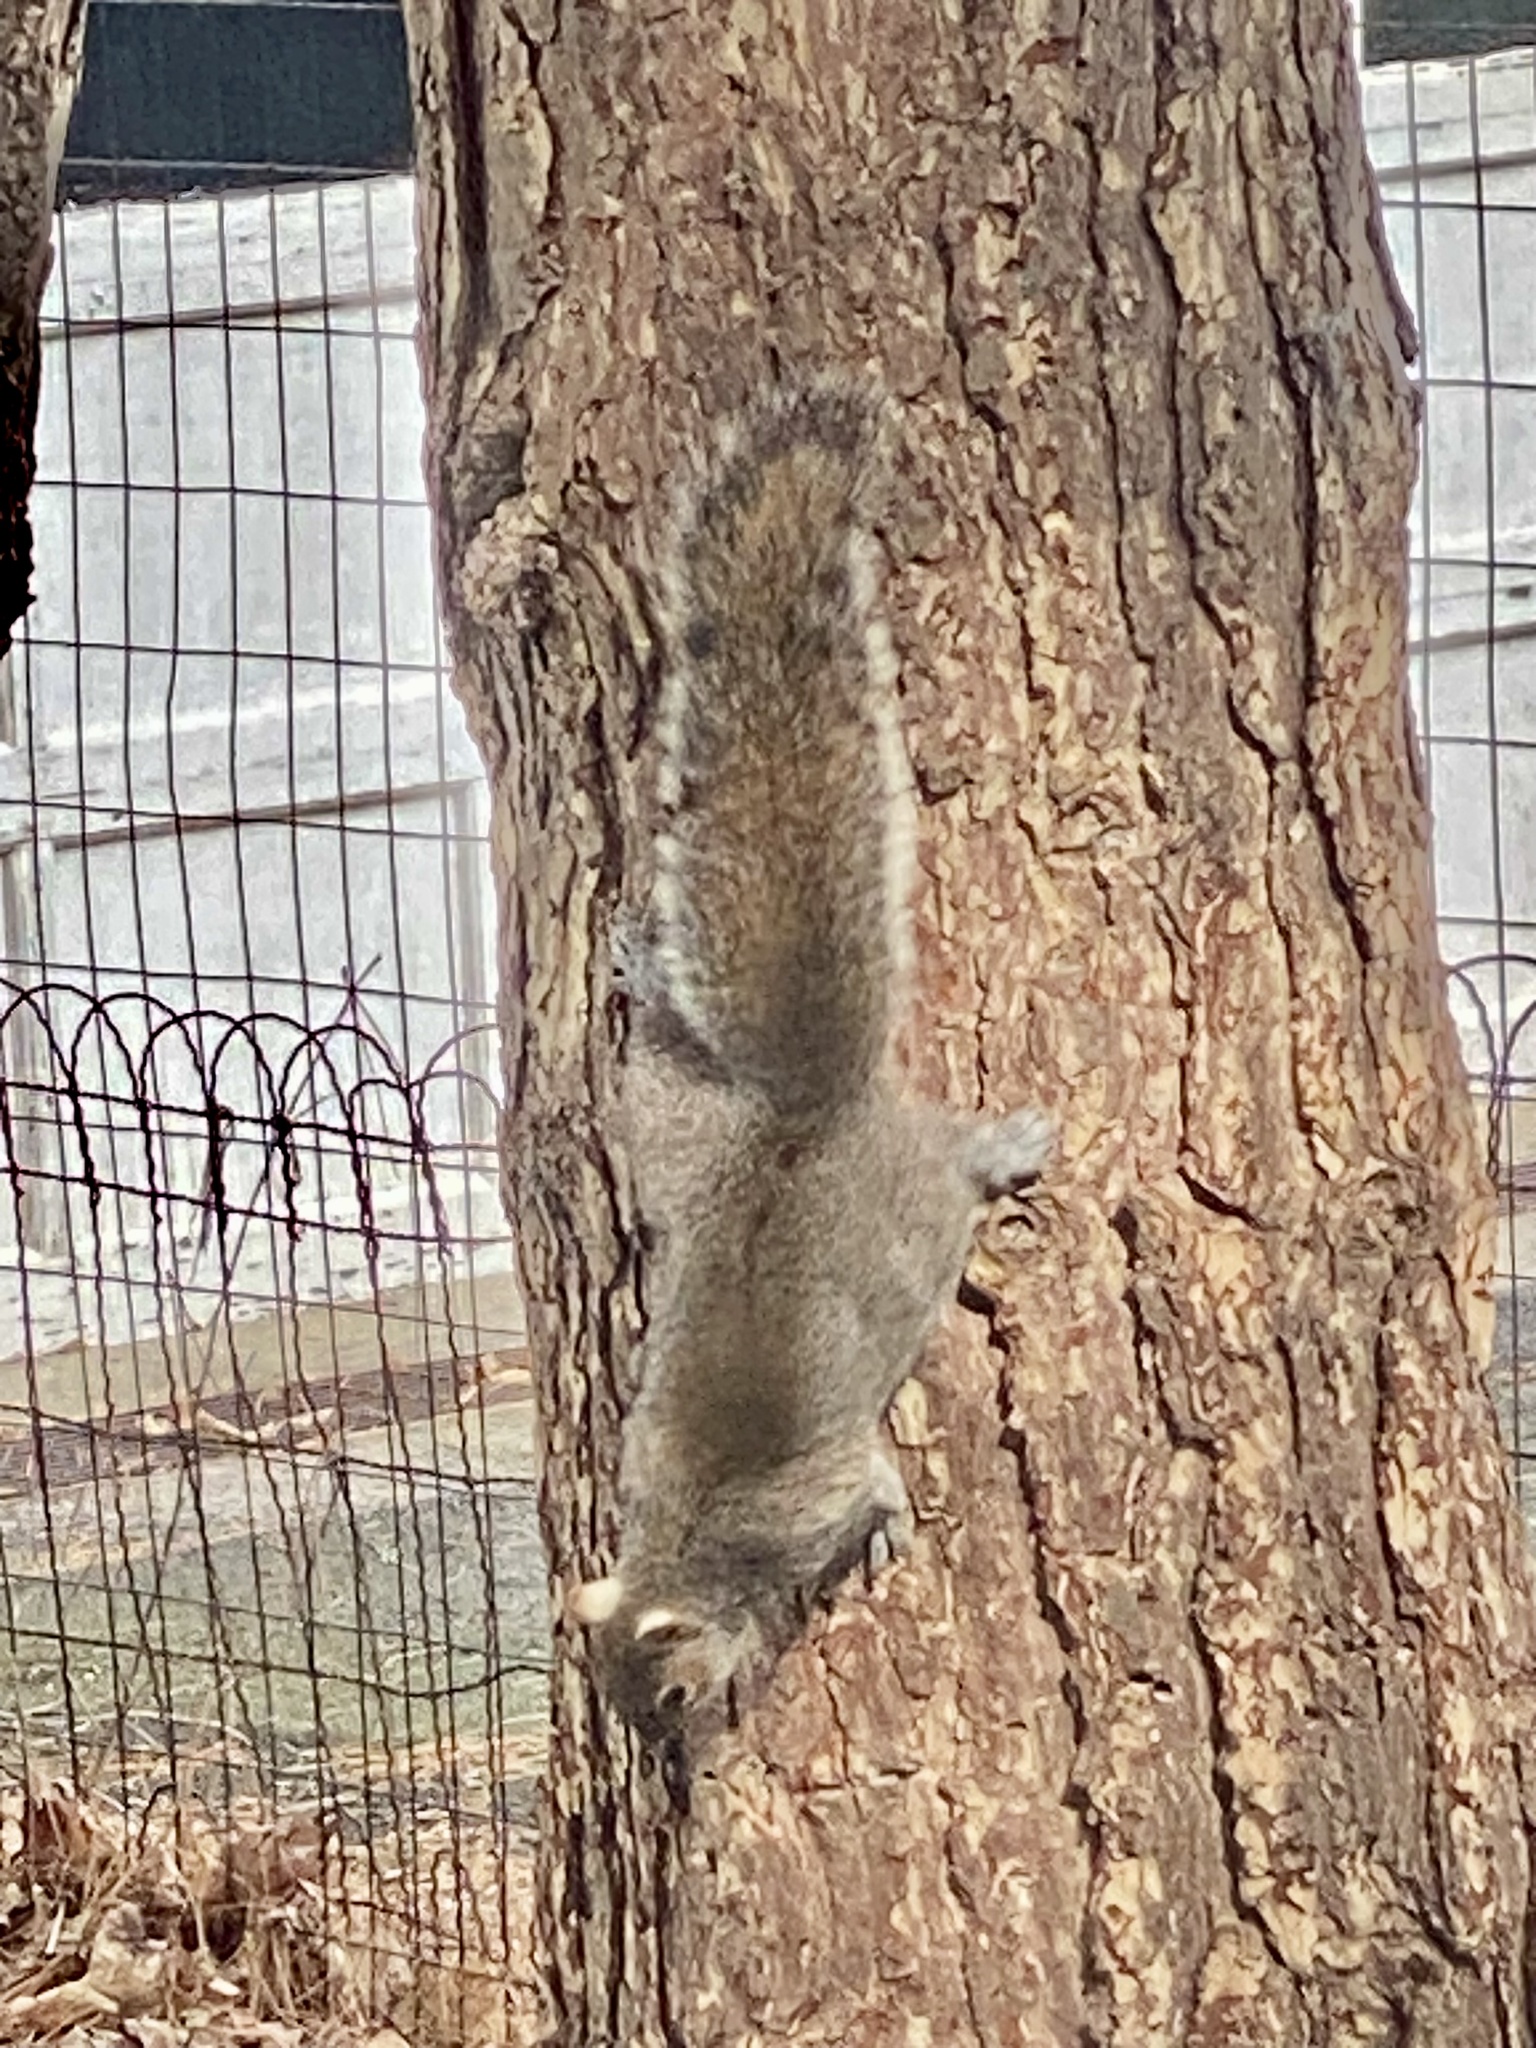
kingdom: Animalia
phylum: Chordata
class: Mammalia
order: Rodentia
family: Sciuridae
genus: Sciurus
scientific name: Sciurus carolinensis
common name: Eastern gray squirrel
